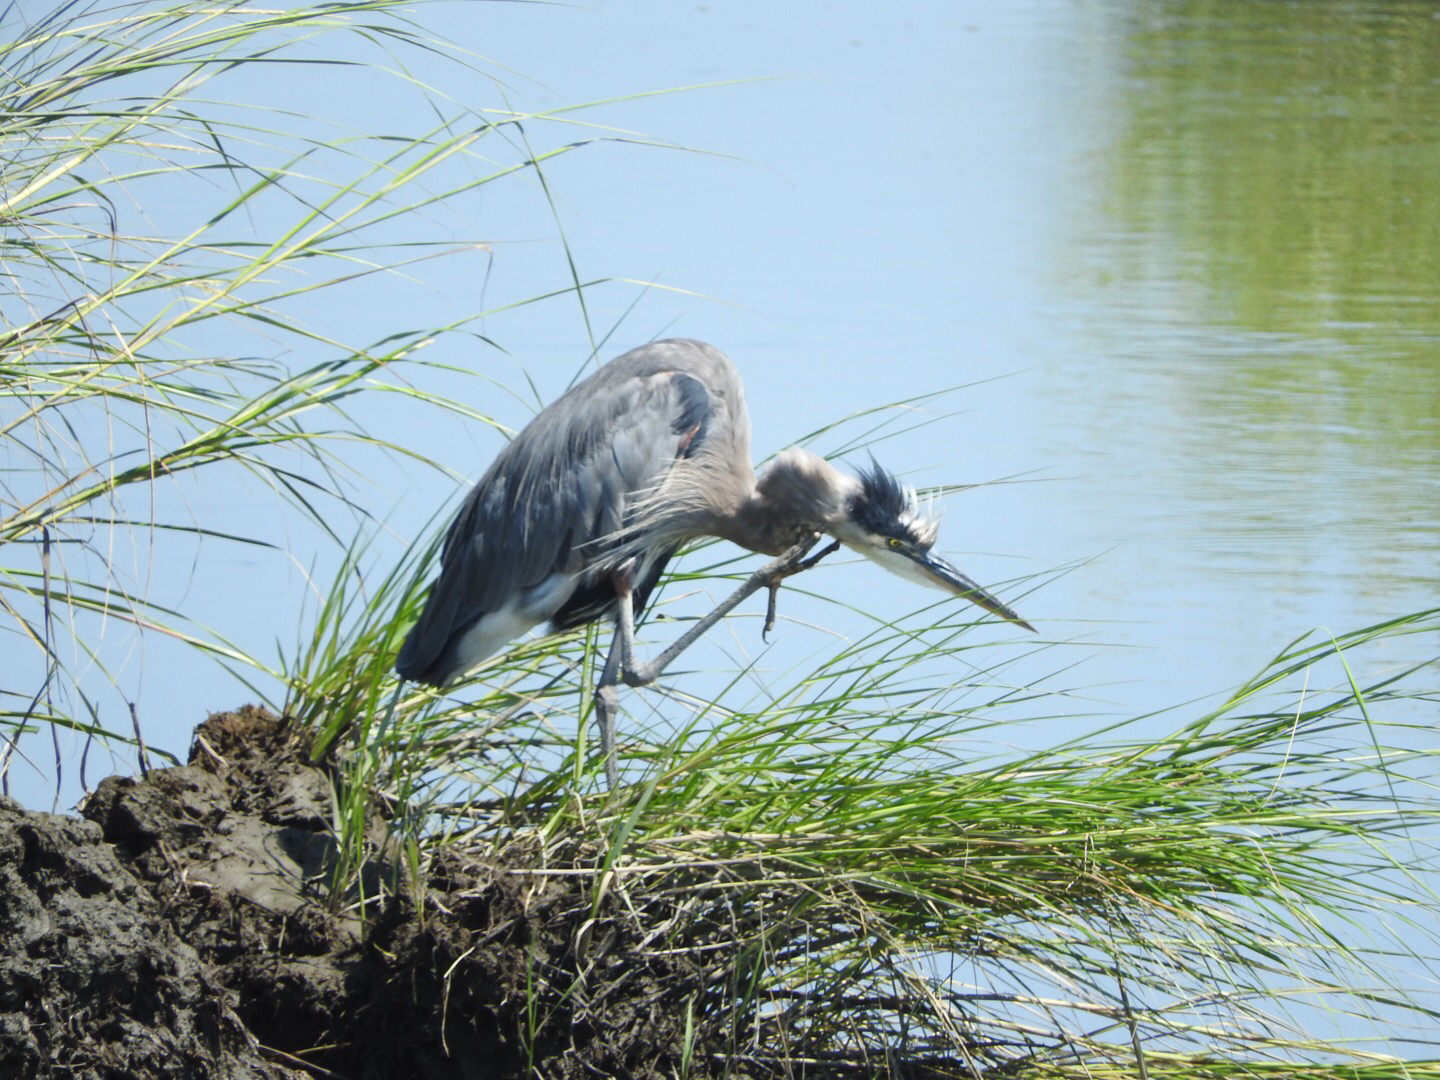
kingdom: Animalia
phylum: Chordata
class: Aves
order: Pelecaniformes
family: Ardeidae
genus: Ardea
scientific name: Ardea herodias
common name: Great blue heron
